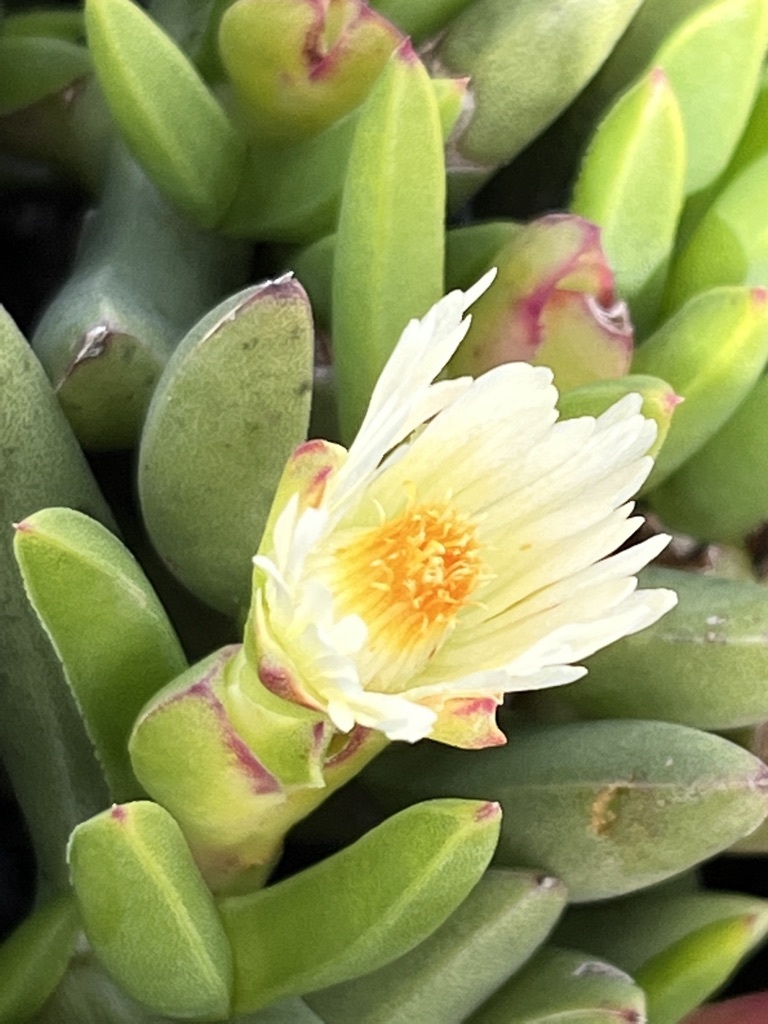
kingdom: Plantae
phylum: Tracheophyta
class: Magnoliopsida
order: Caryophyllales
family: Aizoaceae
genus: Ruschia
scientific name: Ruschia dichroa
